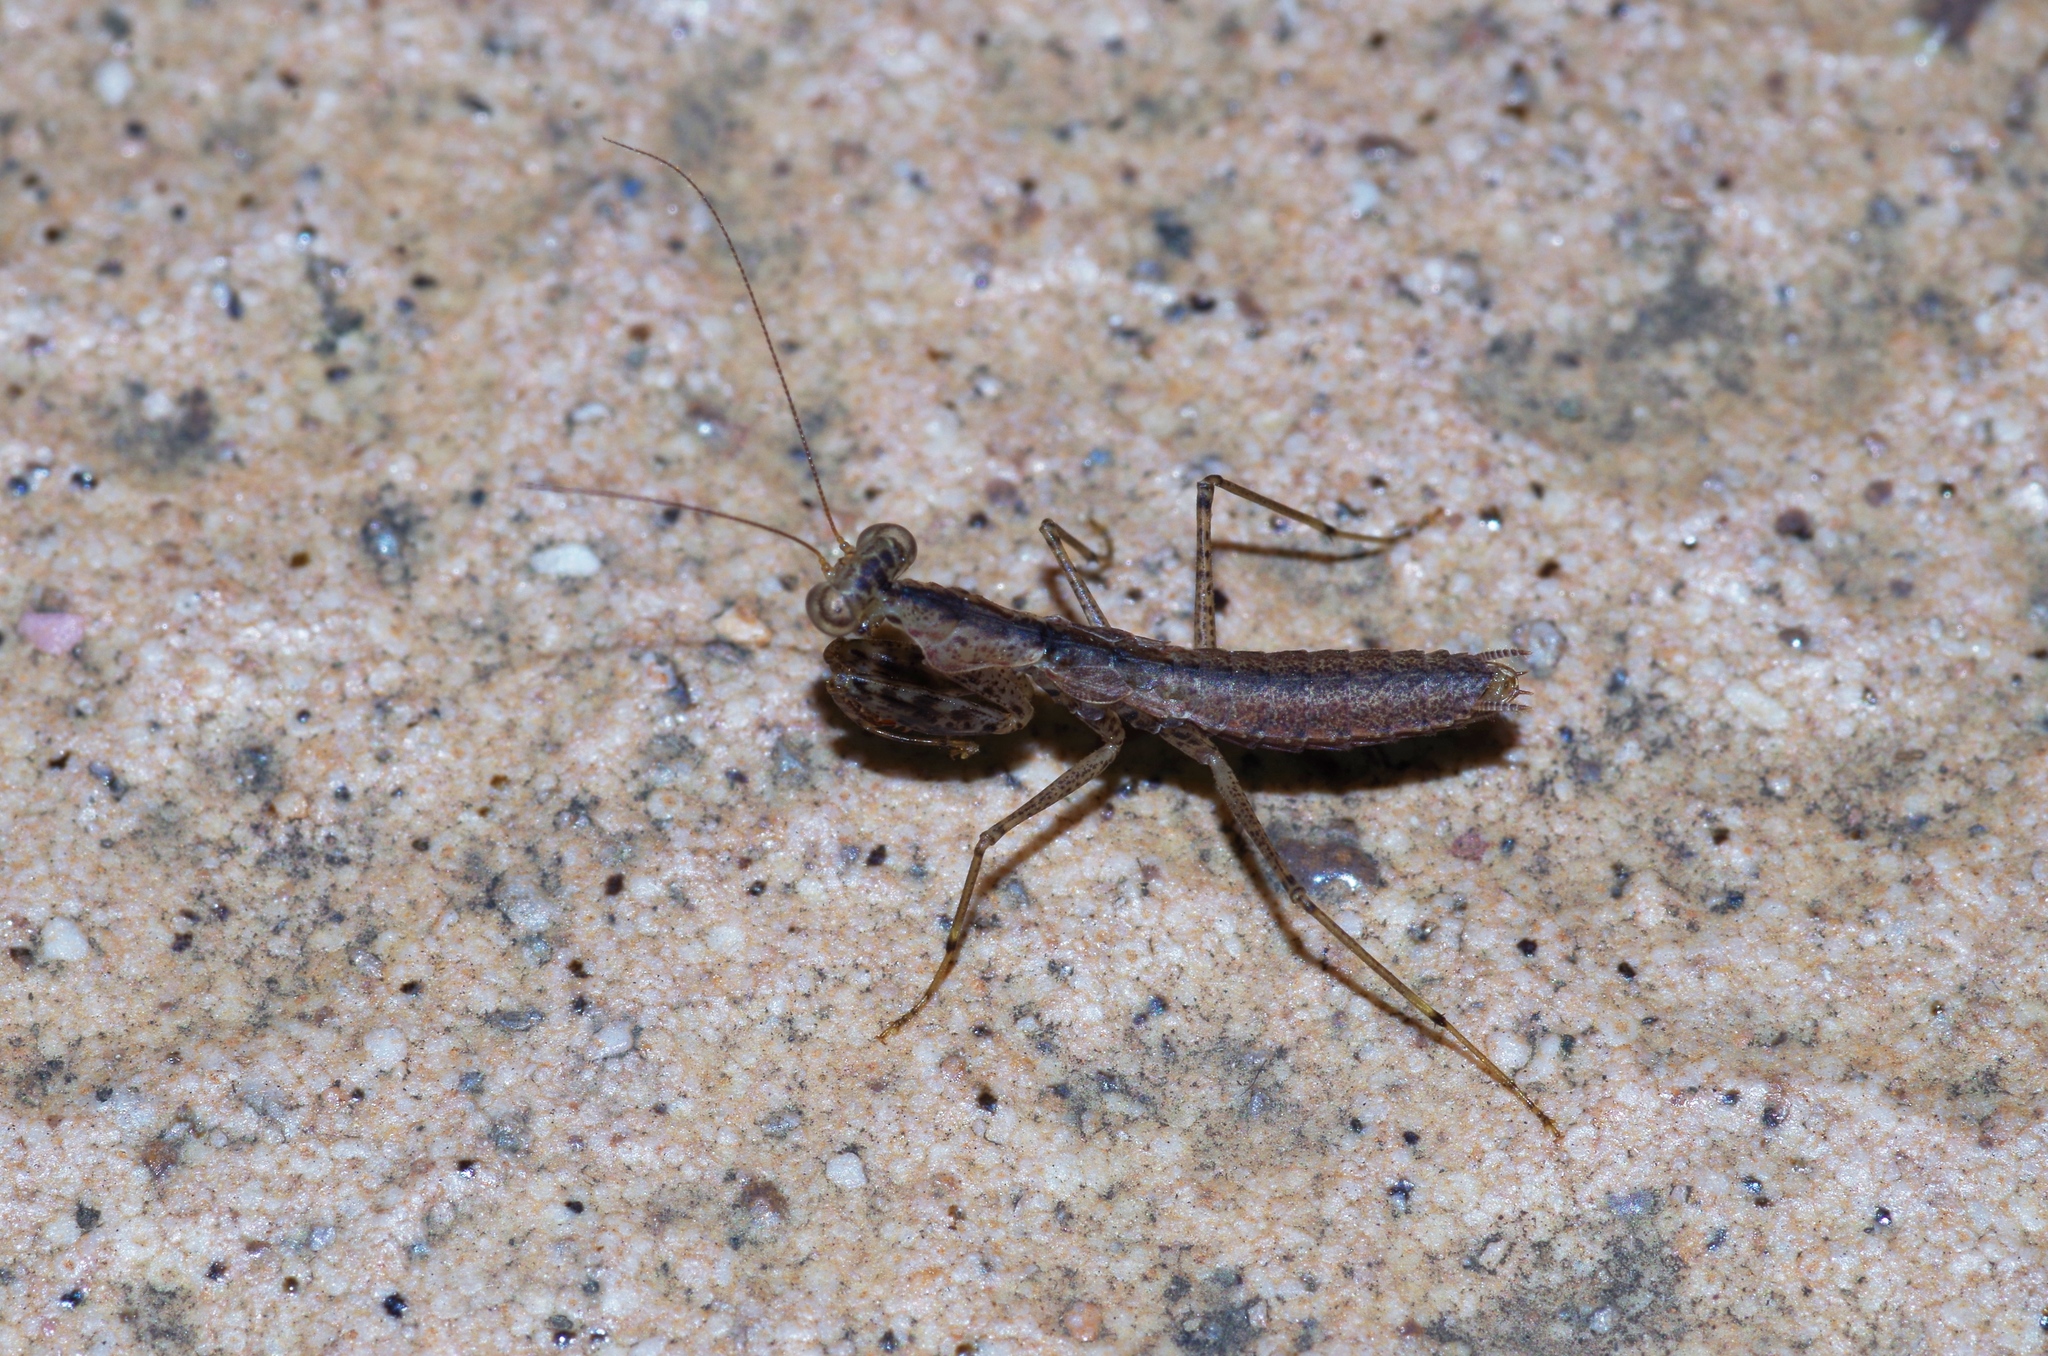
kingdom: Animalia
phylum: Arthropoda
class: Insecta
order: Mantodea
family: Gonypetidae
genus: Amantis
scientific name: Amantis nawai
